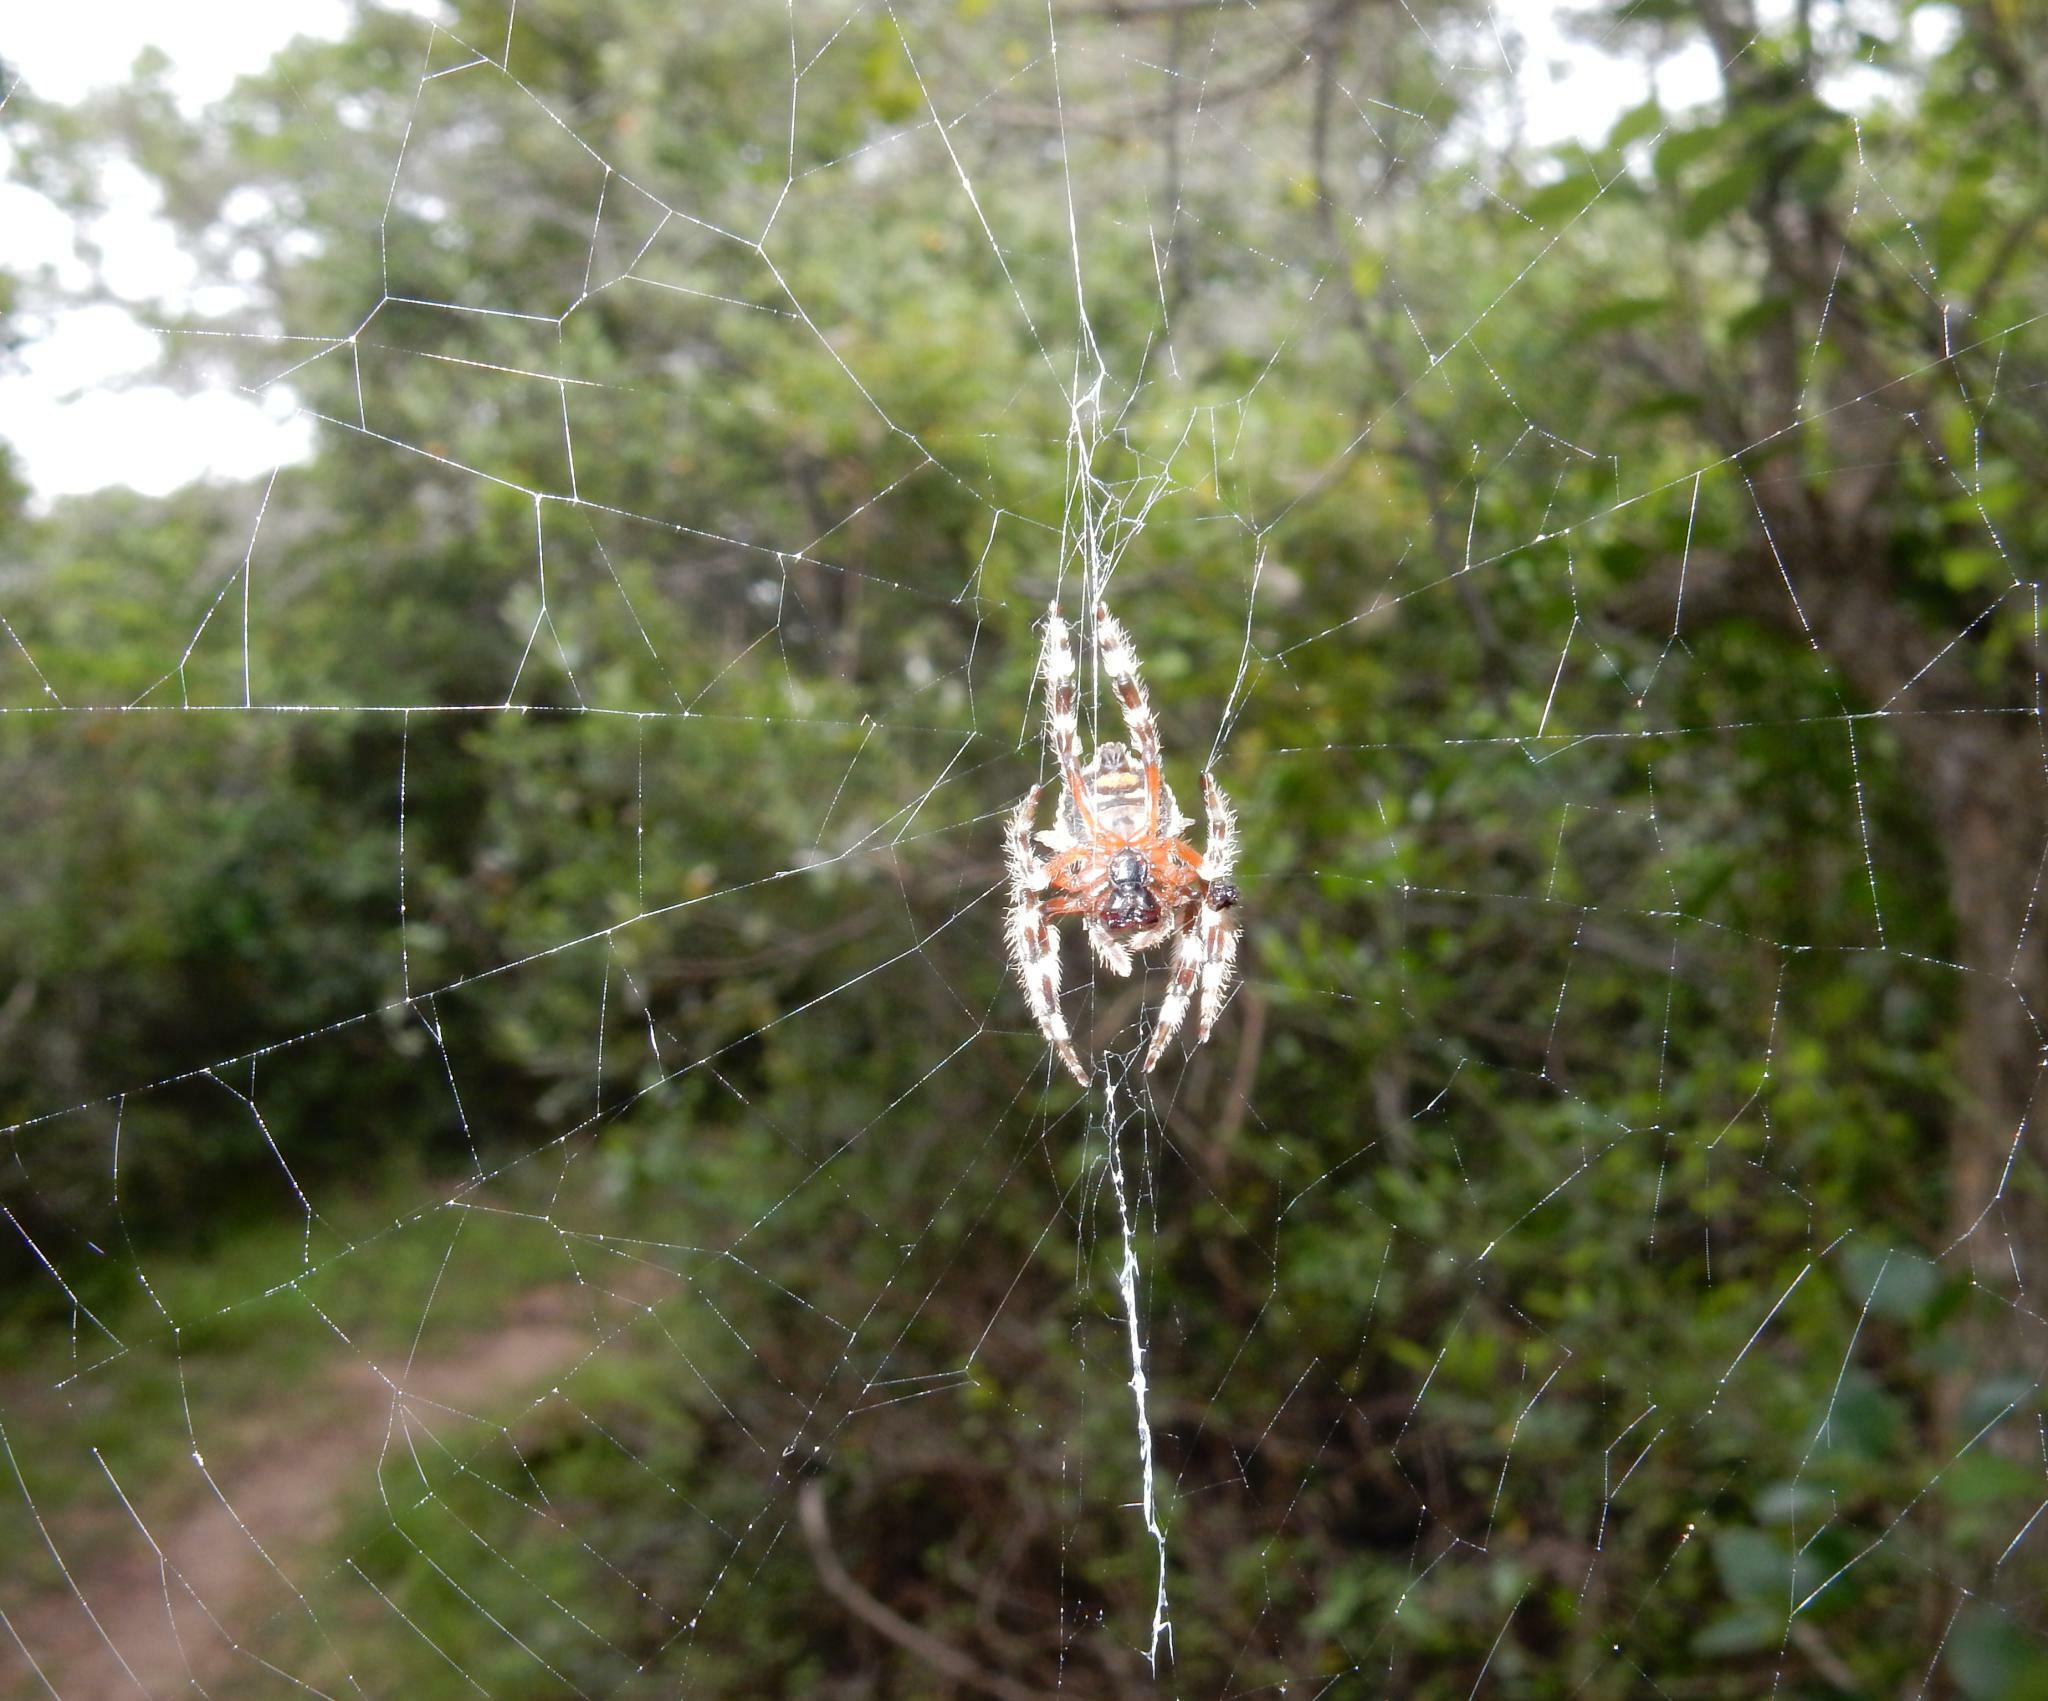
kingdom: Animalia
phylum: Arthropoda
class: Arachnida
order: Araneae
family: Araneidae
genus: Caerostris
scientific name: Caerostris sexcuspidata
